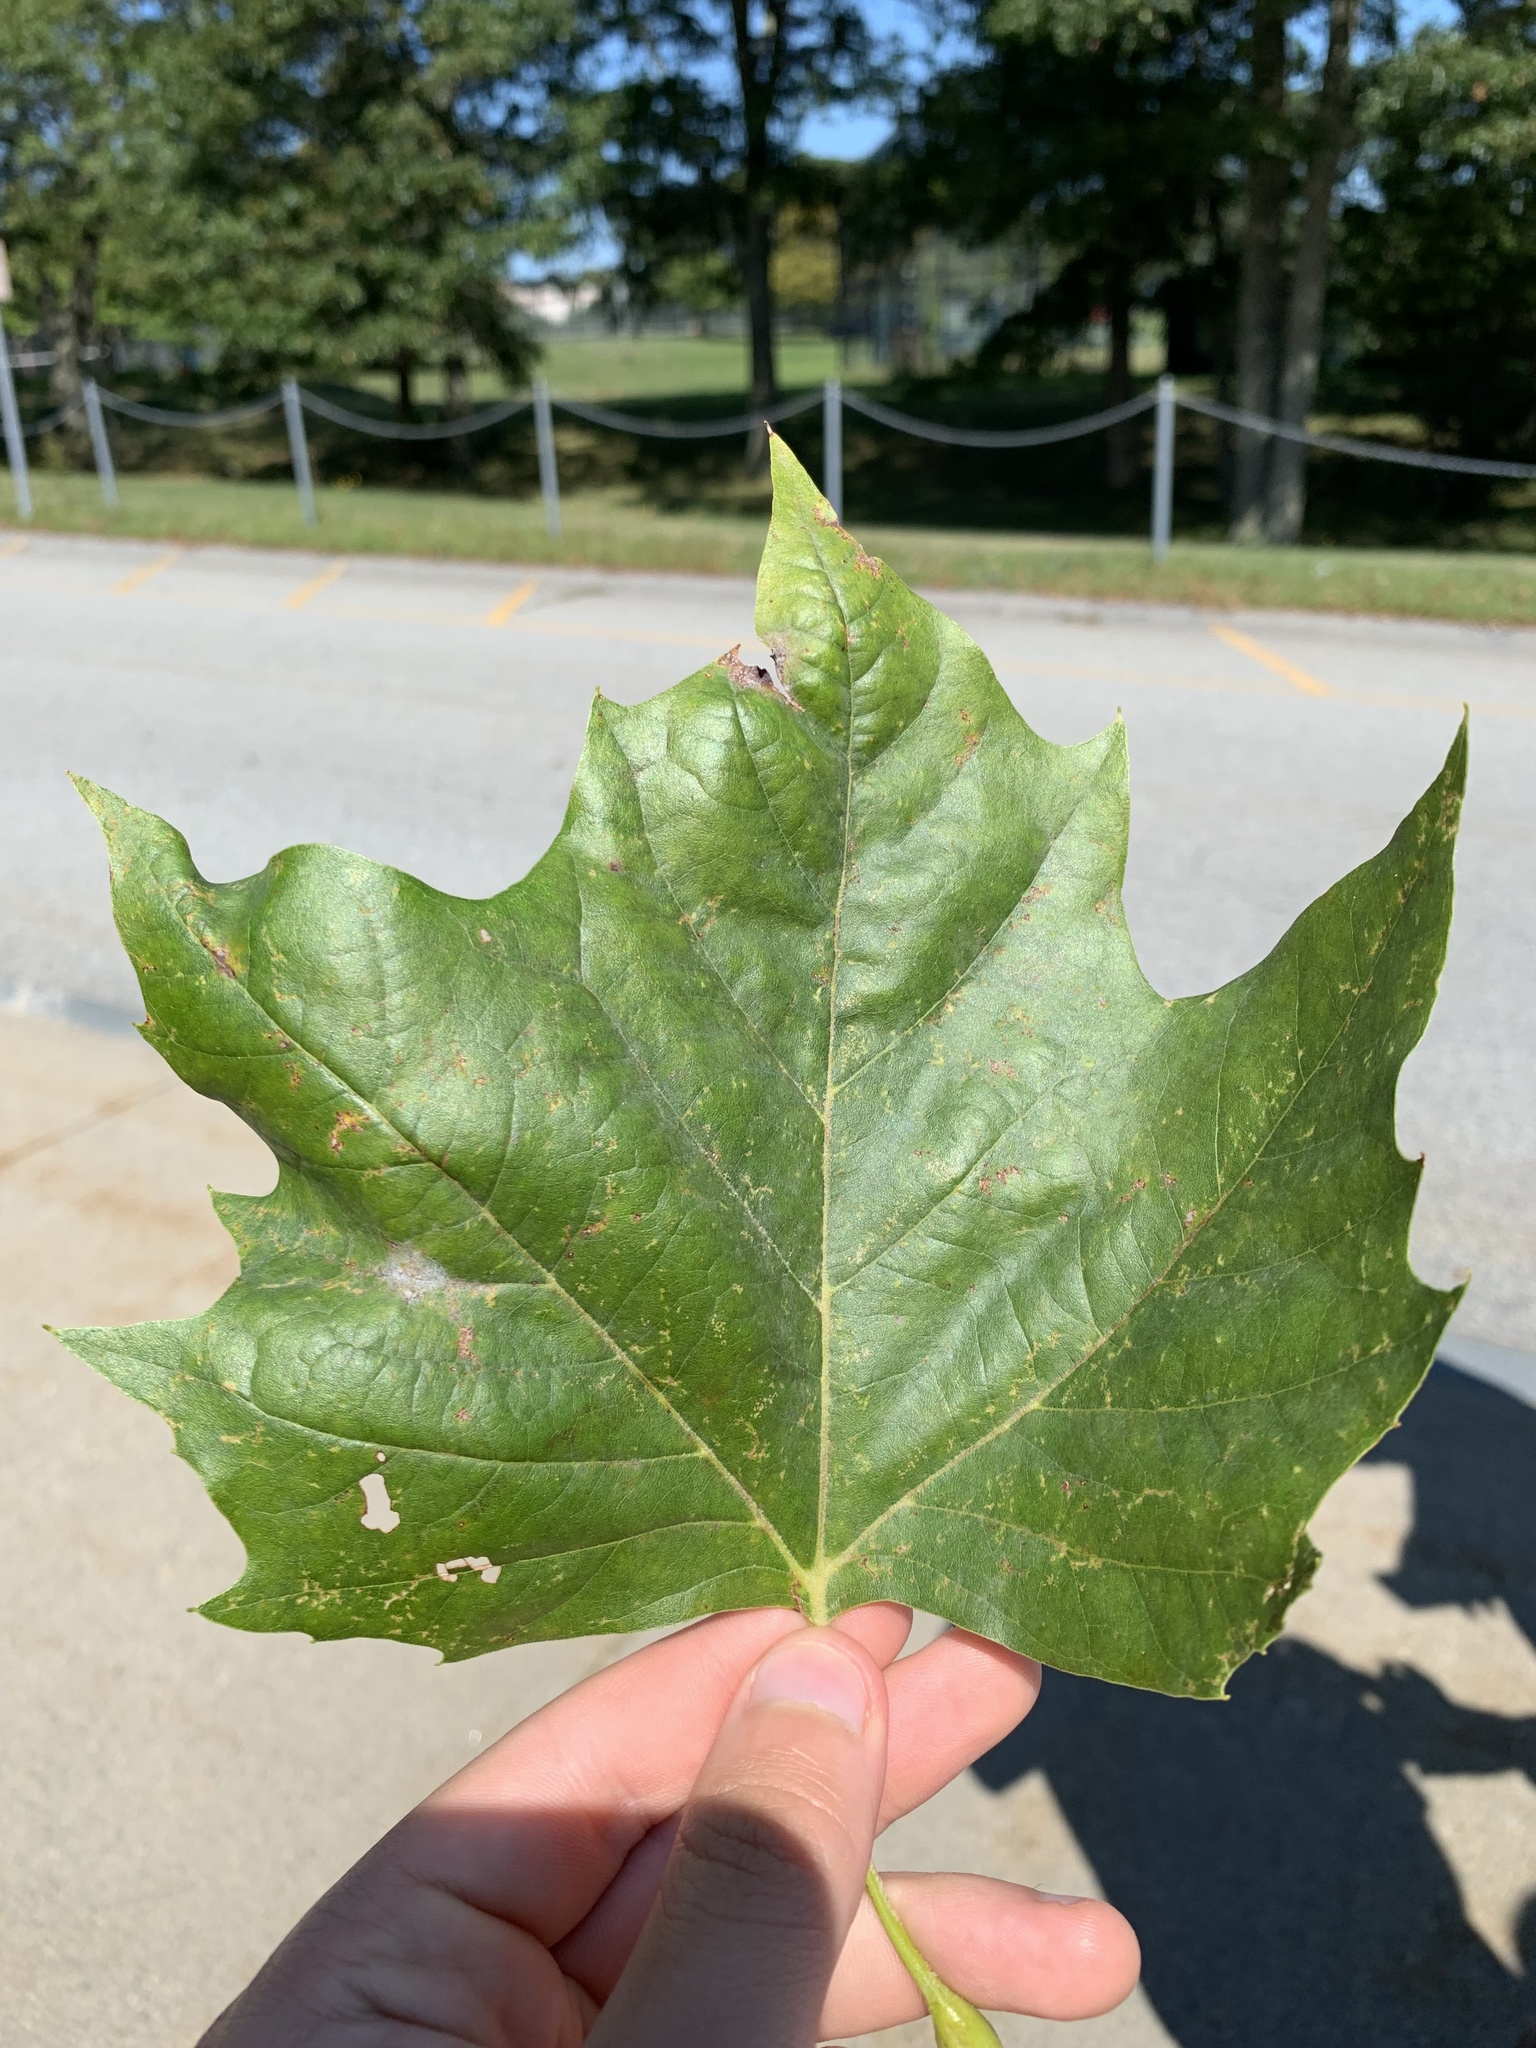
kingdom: Plantae
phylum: Tracheophyta
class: Magnoliopsida
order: Proteales
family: Platanaceae
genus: Platanus
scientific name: Platanus occidentalis
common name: American sycamore
